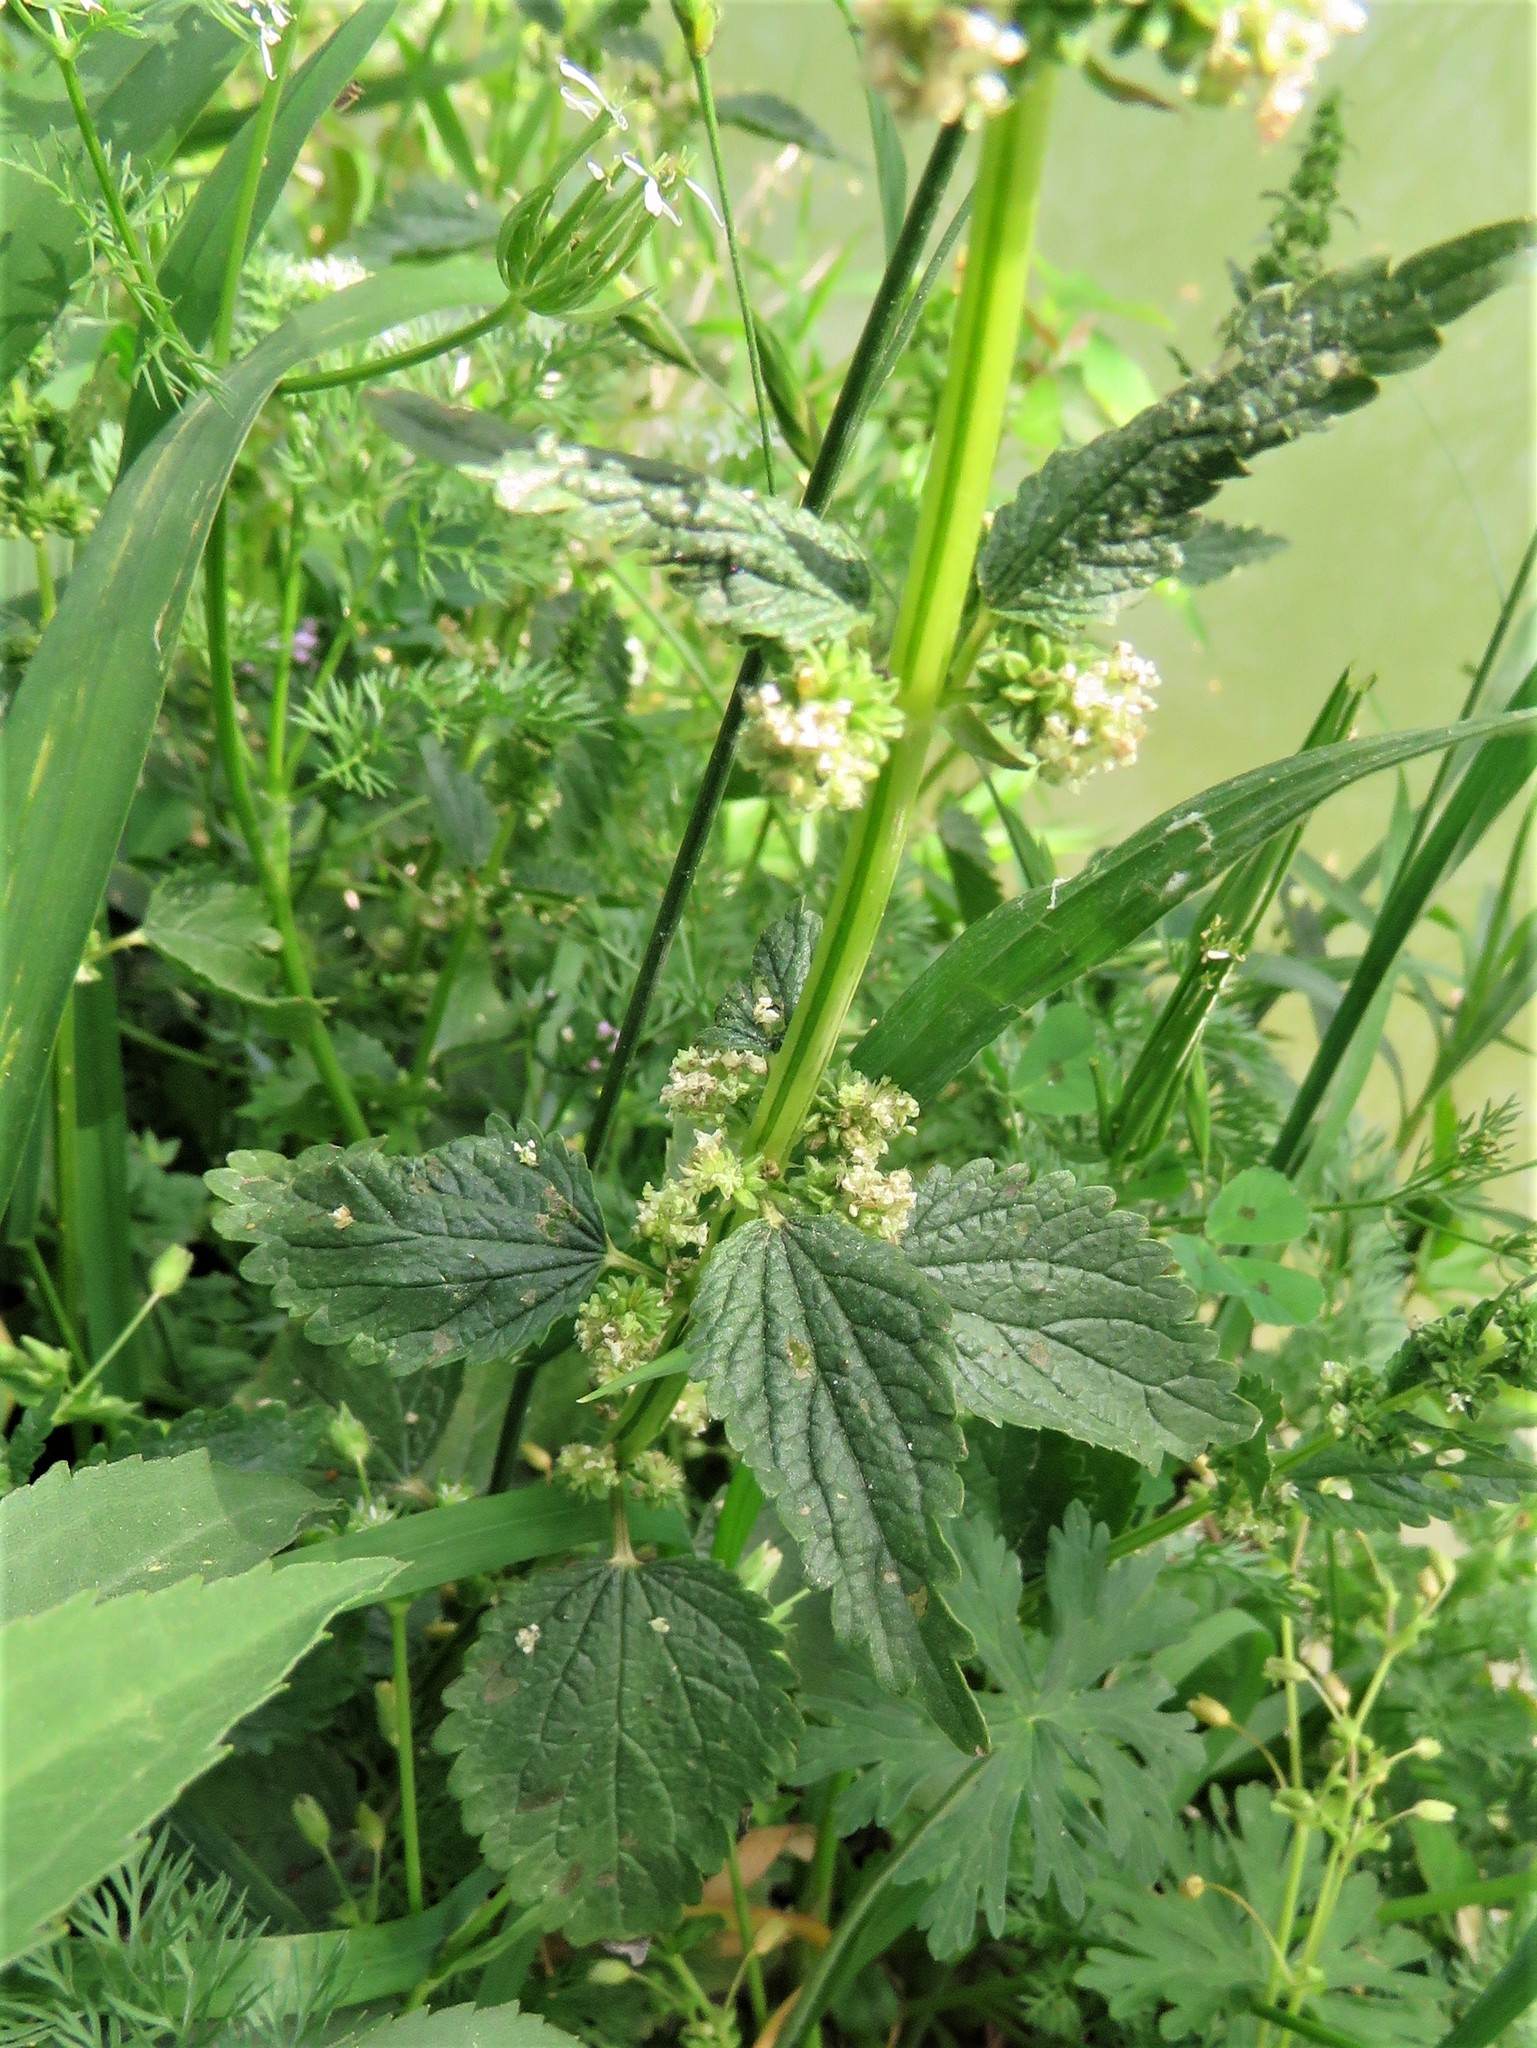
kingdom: Plantae
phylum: Tracheophyta
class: Magnoliopsida
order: Rosales
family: Urticaceae
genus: Urtica
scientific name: Urtica chamaedryoides
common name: Heart-leaf nettle
